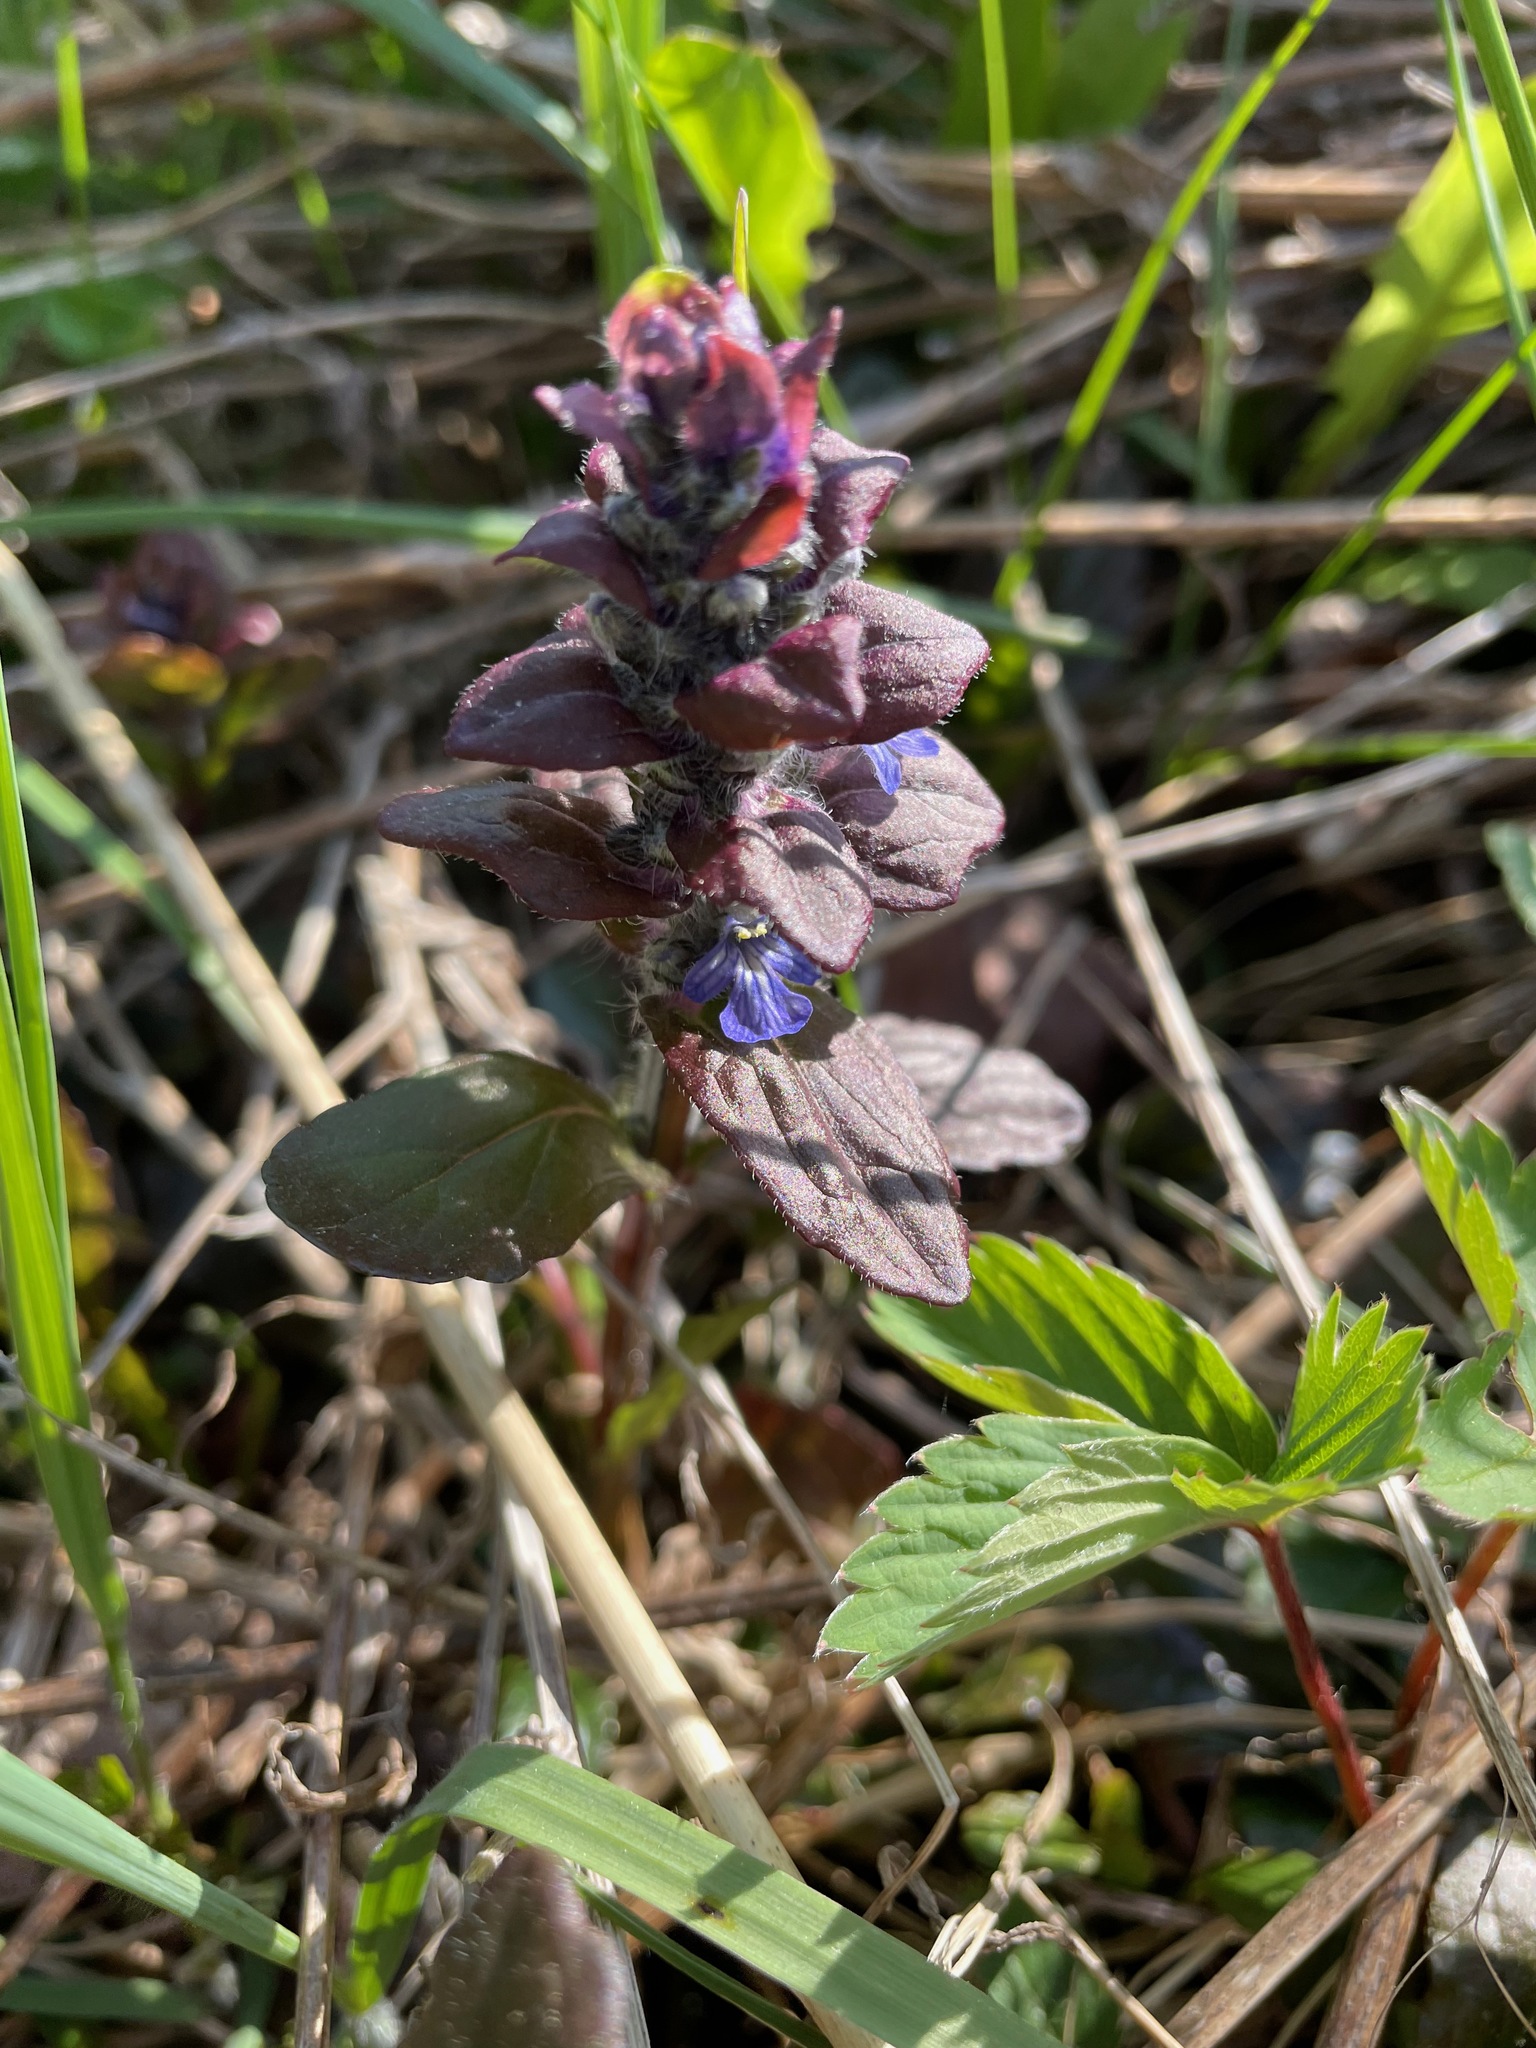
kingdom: Plantae
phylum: Tracheophyta
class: Magnoliopsida
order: Lamiales
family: Lamiaceae
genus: Ajuga
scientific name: Ajuga reptans
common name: Bugle
